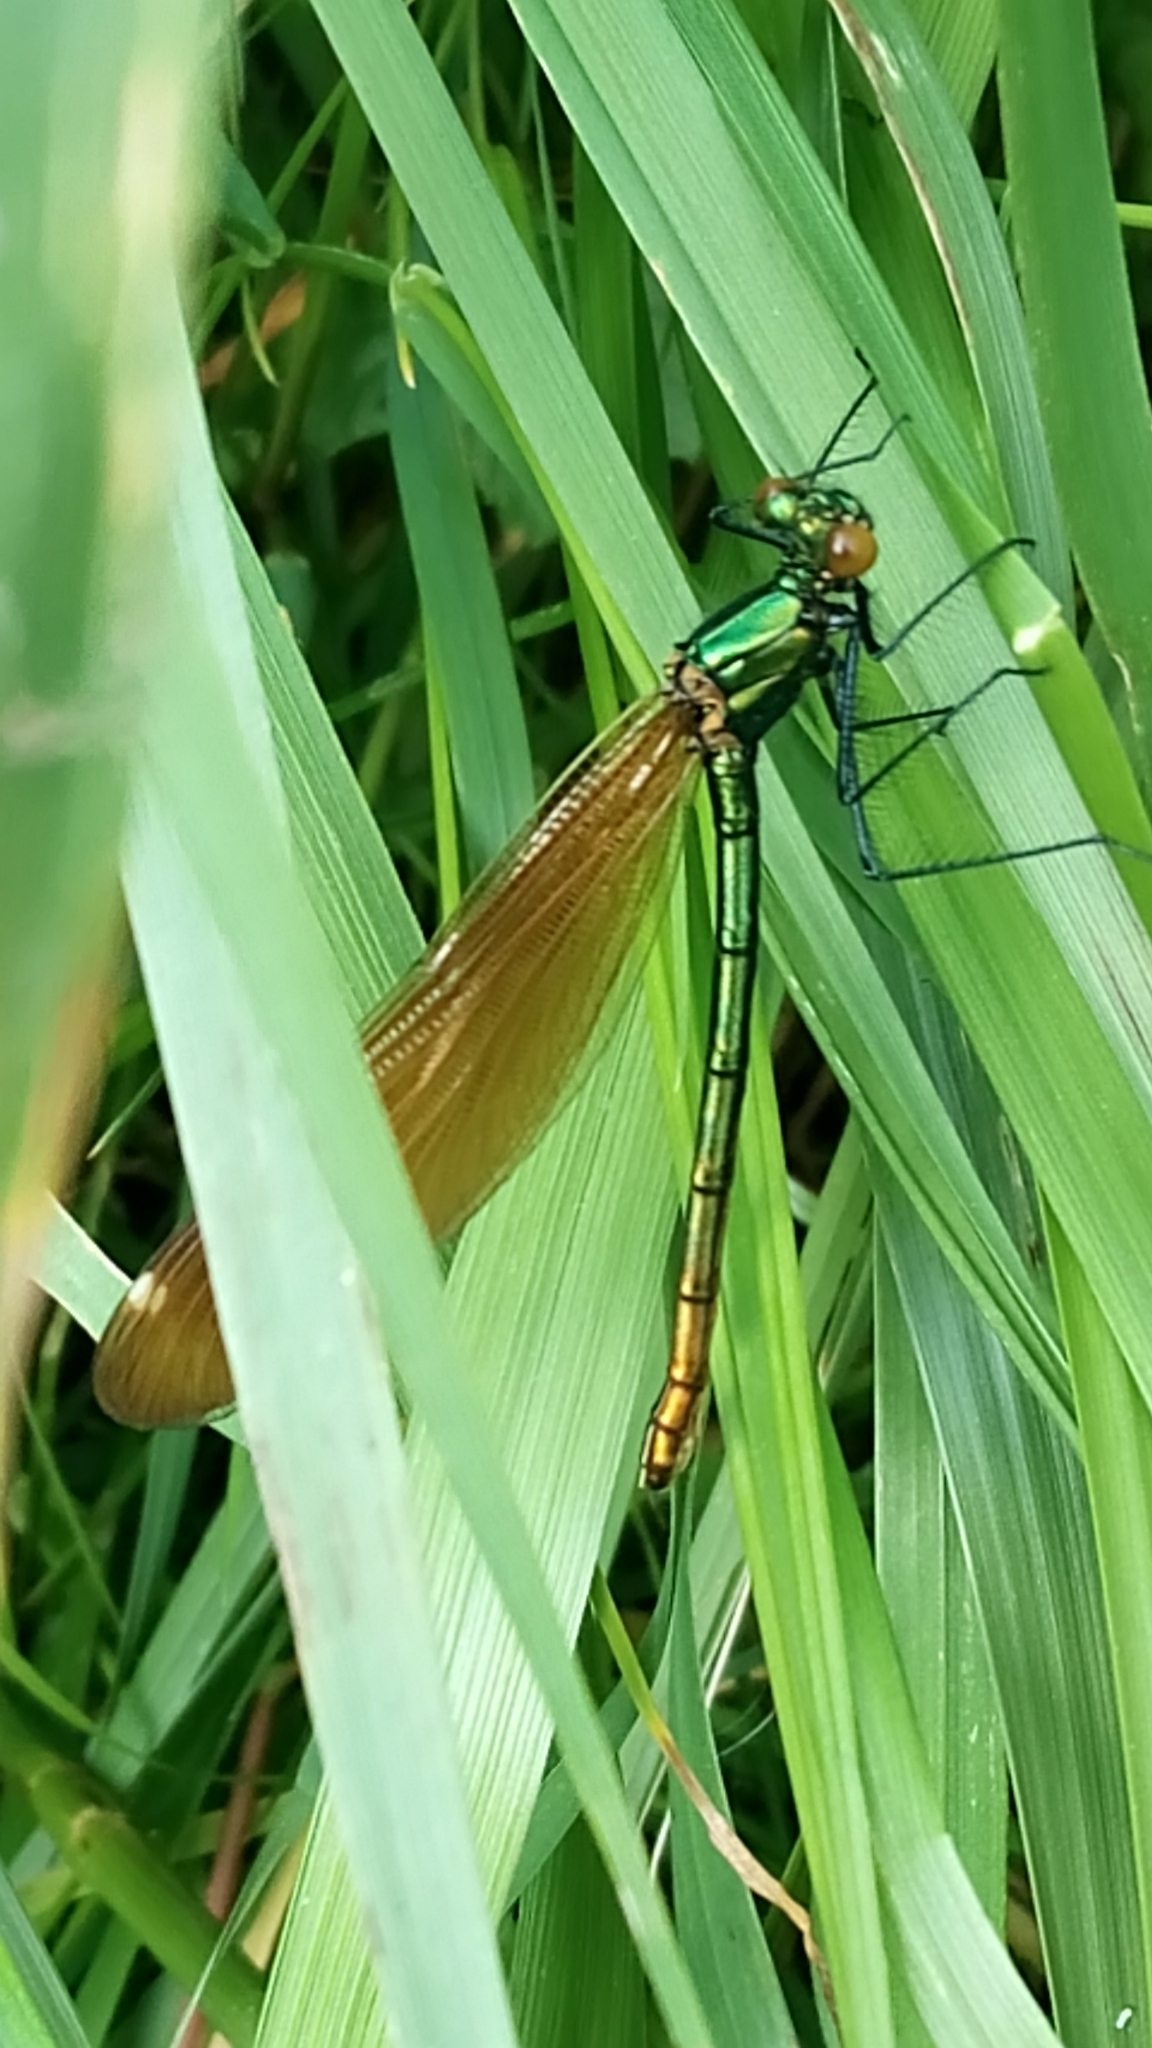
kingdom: Animalia
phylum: Arthropoda
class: Insecta
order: Odonata
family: Calopterygidae
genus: Calopteryx
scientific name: Calopteryx virgo
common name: Beautiful demoiselle
